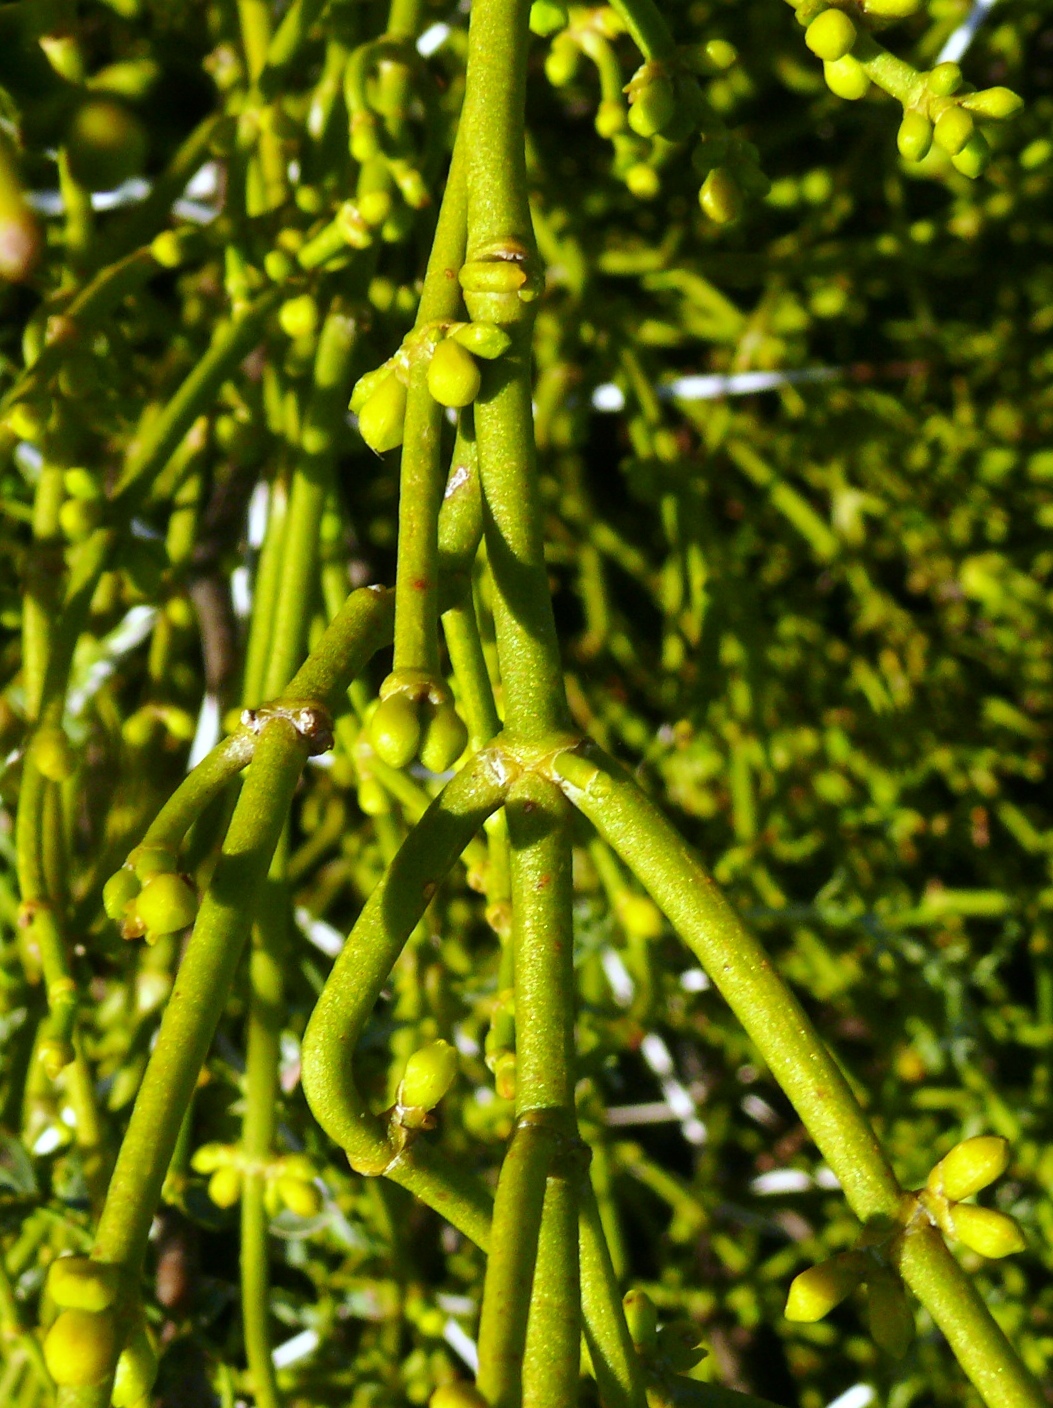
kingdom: Plantae
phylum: Tracheophyta
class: Magnoliopsida
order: Santalales
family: Viscaceae
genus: Viscum
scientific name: Viscum continuum
